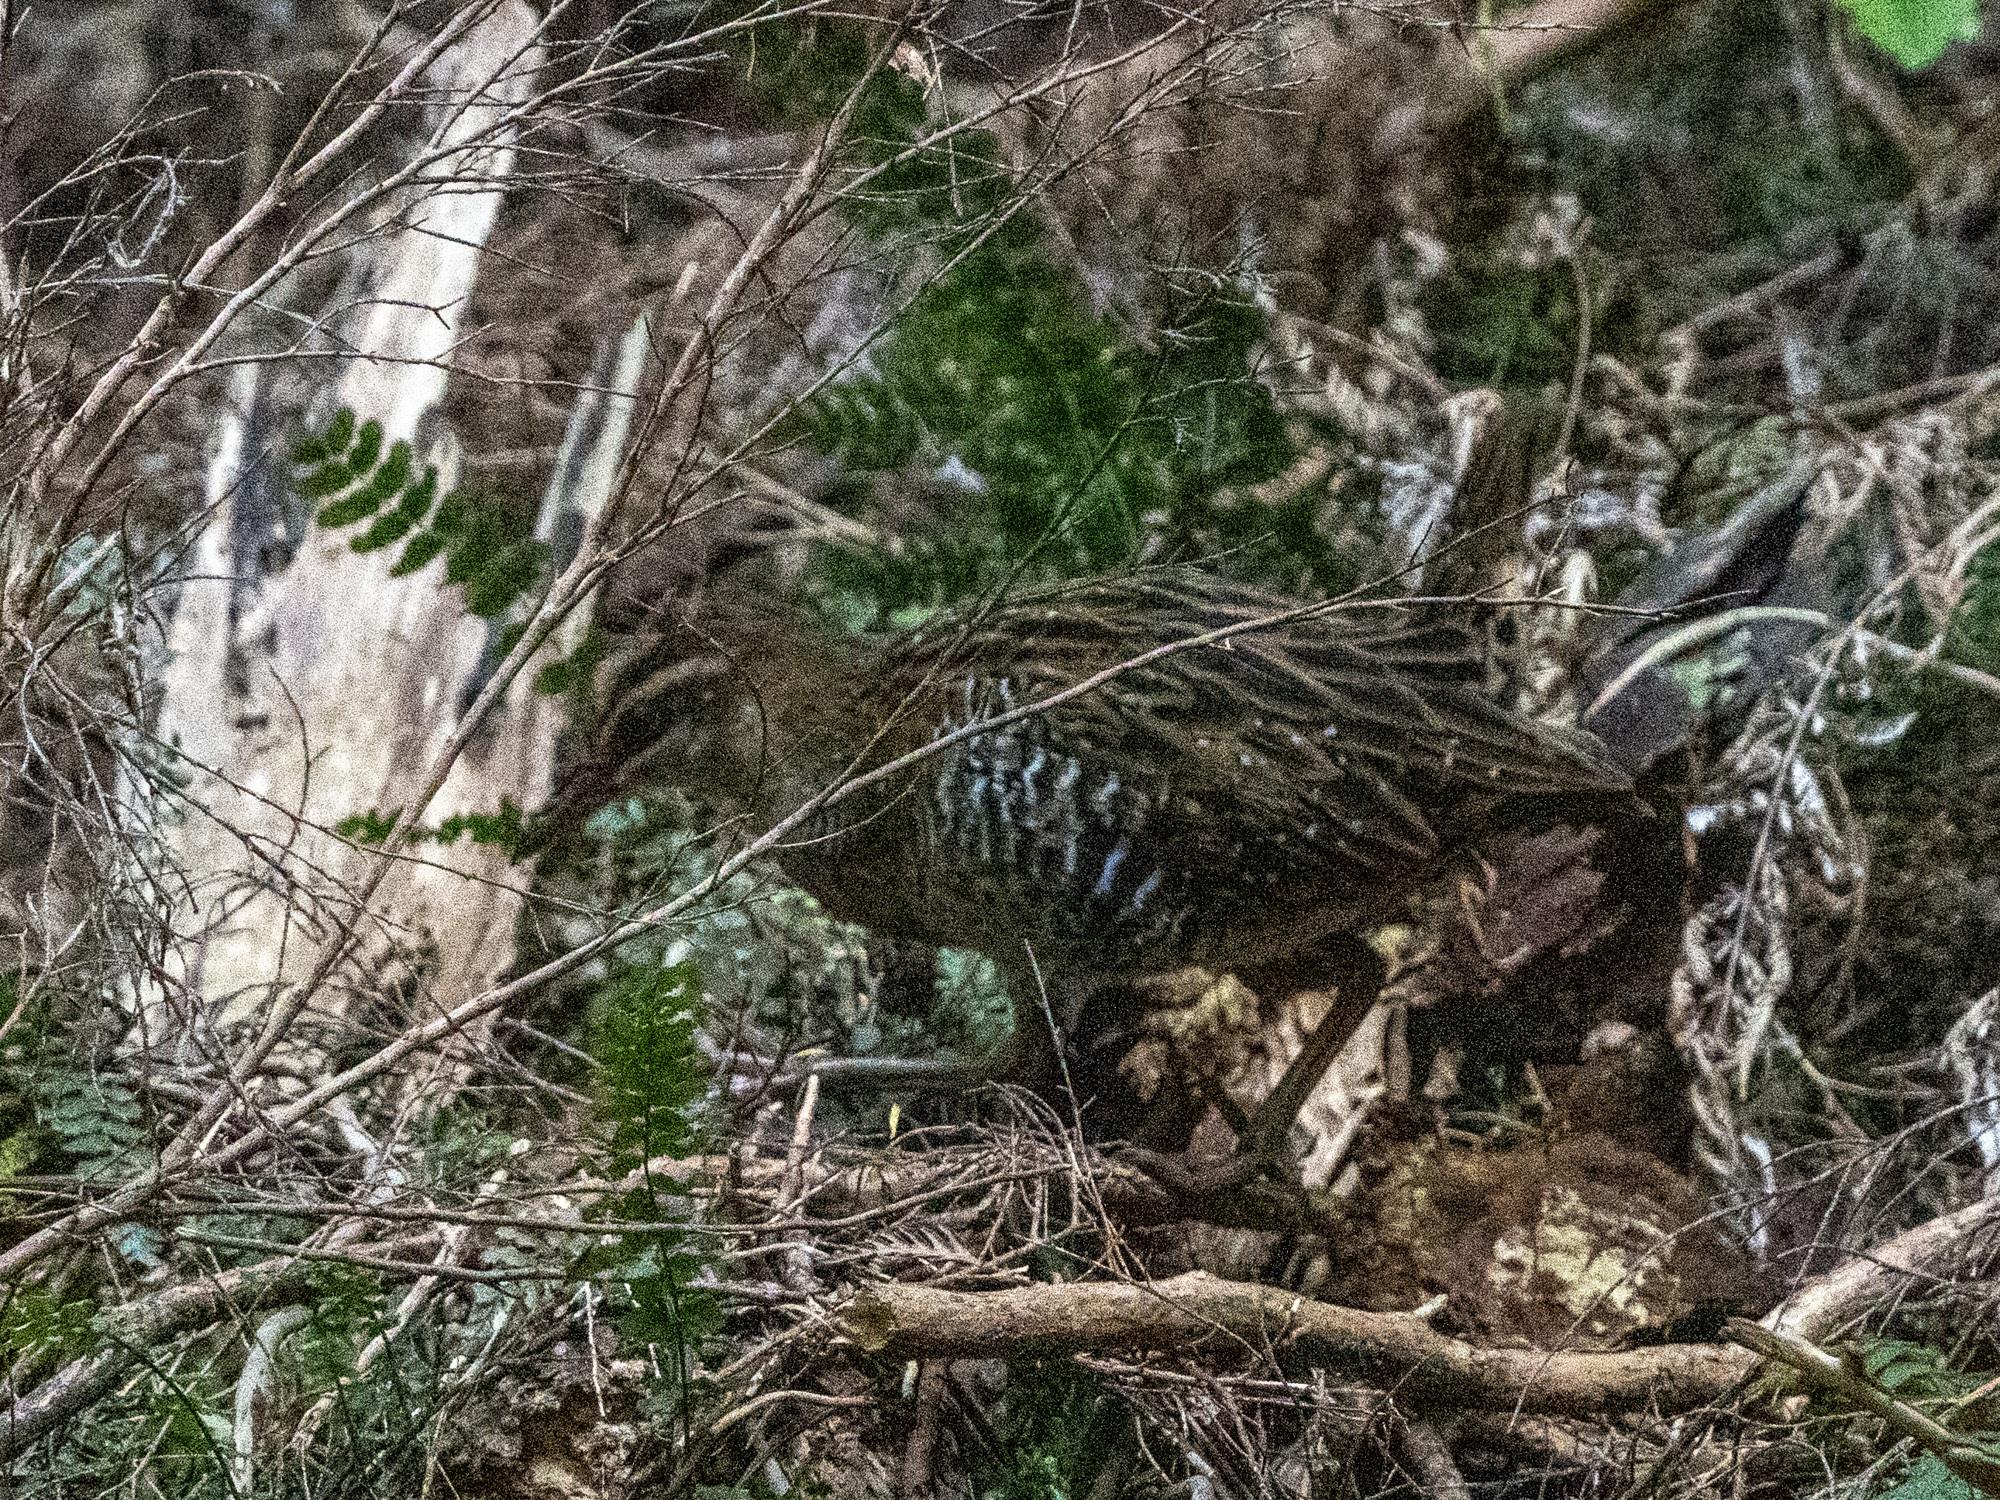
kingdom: Animalia
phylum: Chordata
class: Aves
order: Gruiformes
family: Rallidae
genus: Gallirallus
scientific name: Gallirallus philippensis
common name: Buff-banded rail
